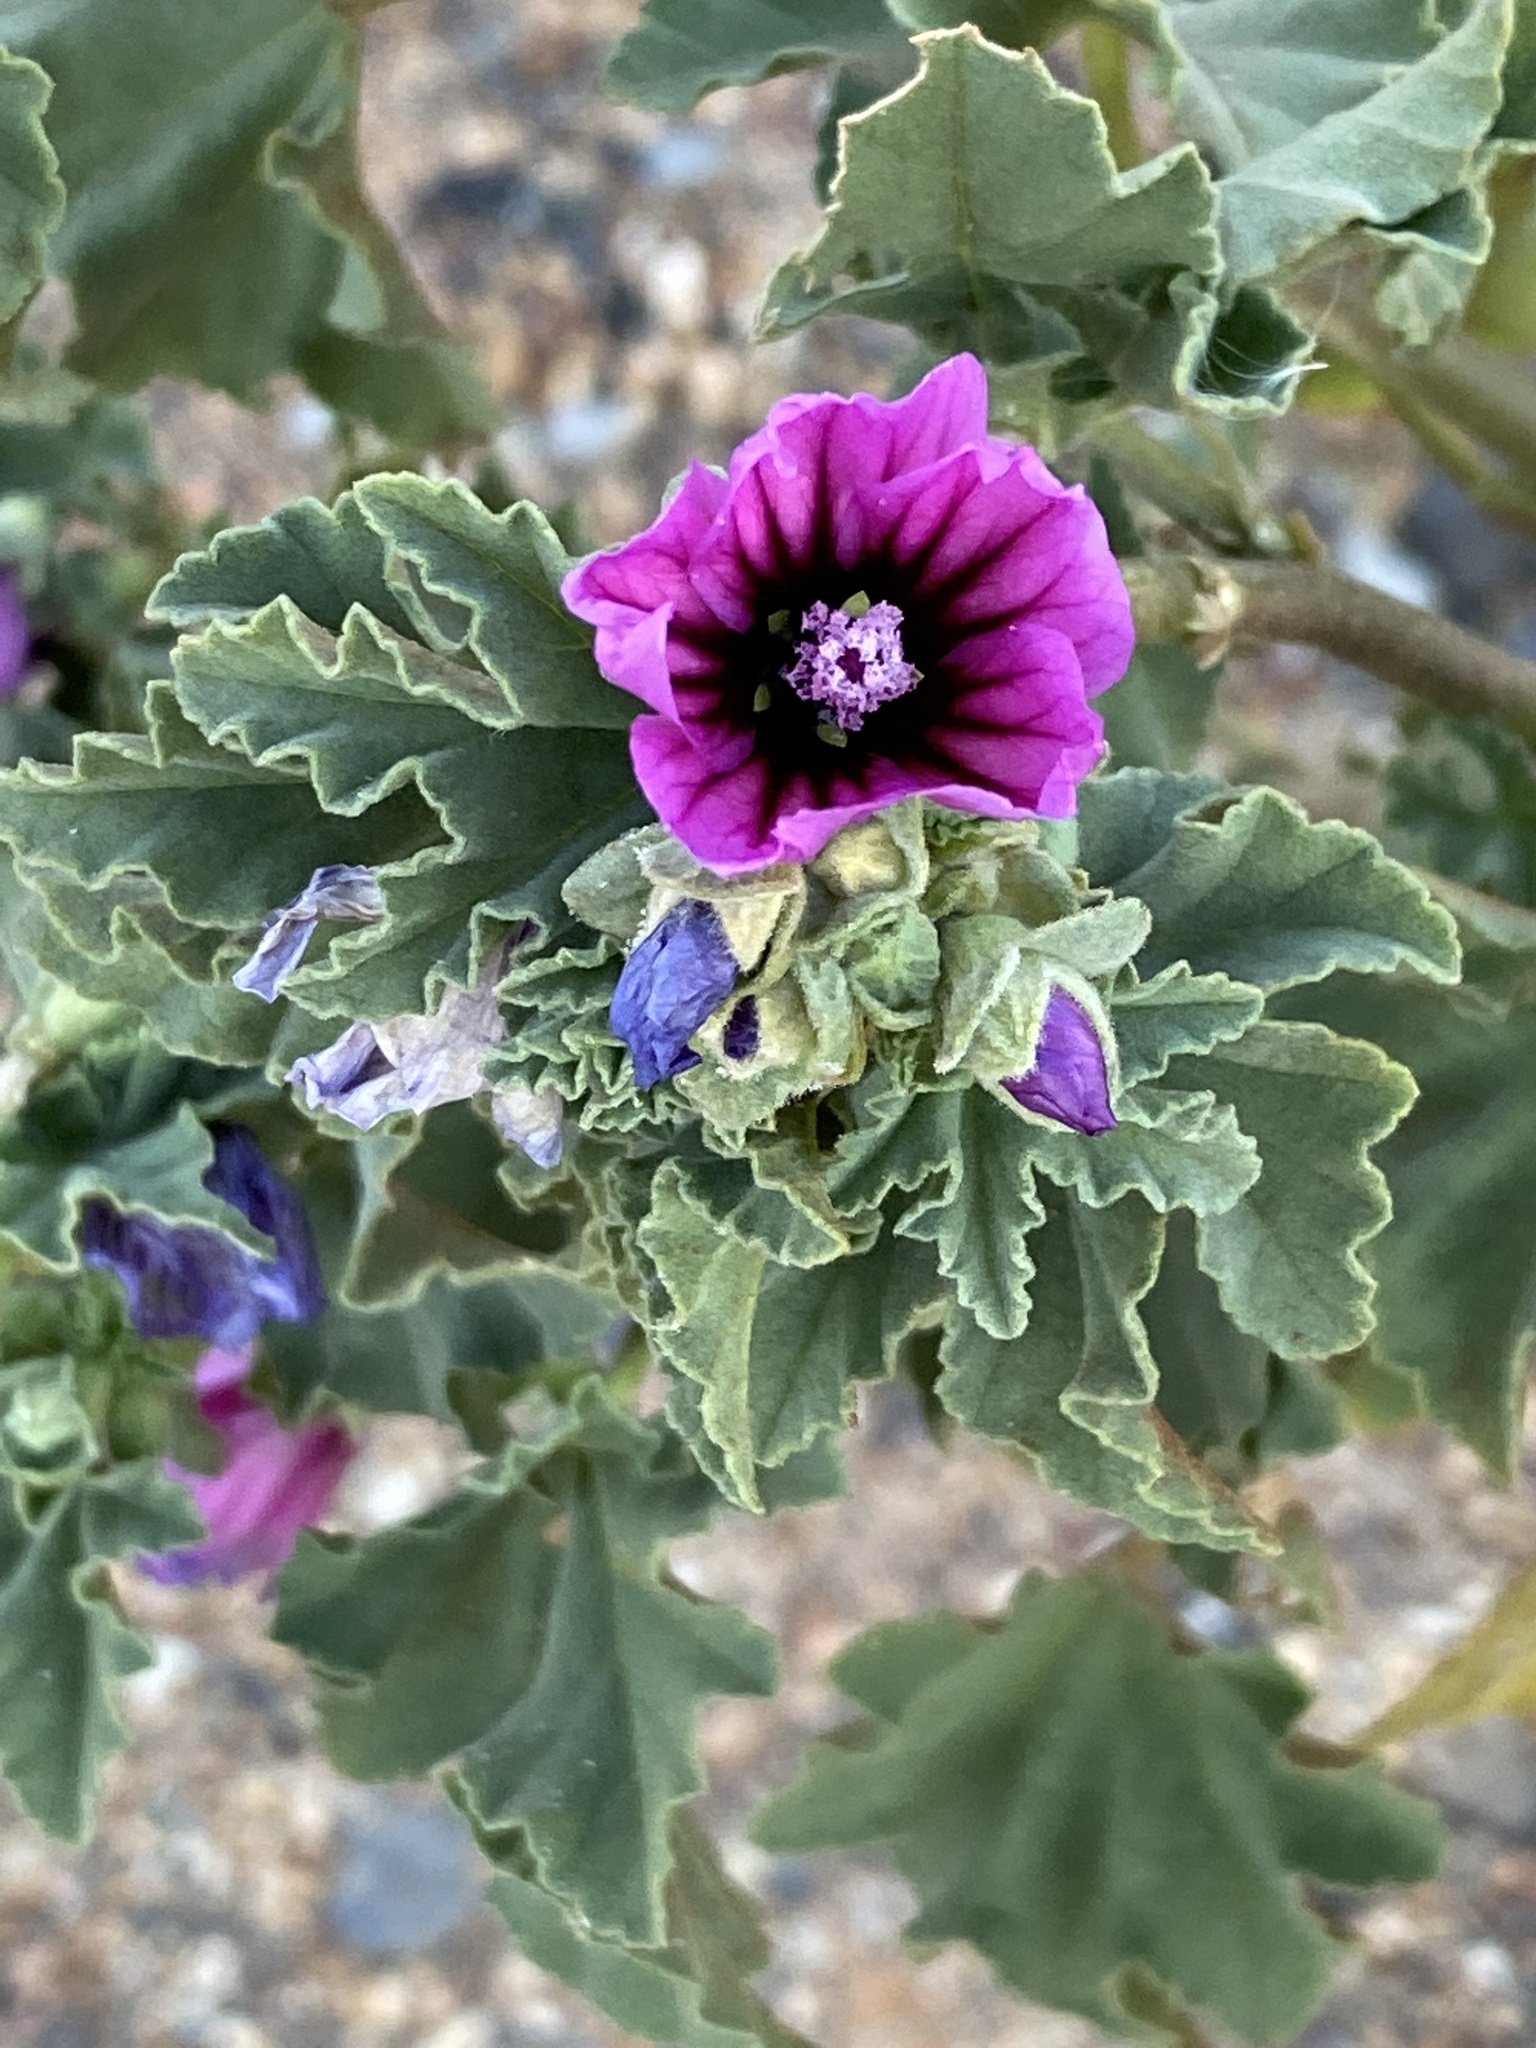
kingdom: Plantae
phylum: Tracheophyta
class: Magnoliopsida
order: Malvales
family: Malvaceae
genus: Malva
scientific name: Malva arborea
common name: Tree mallow
